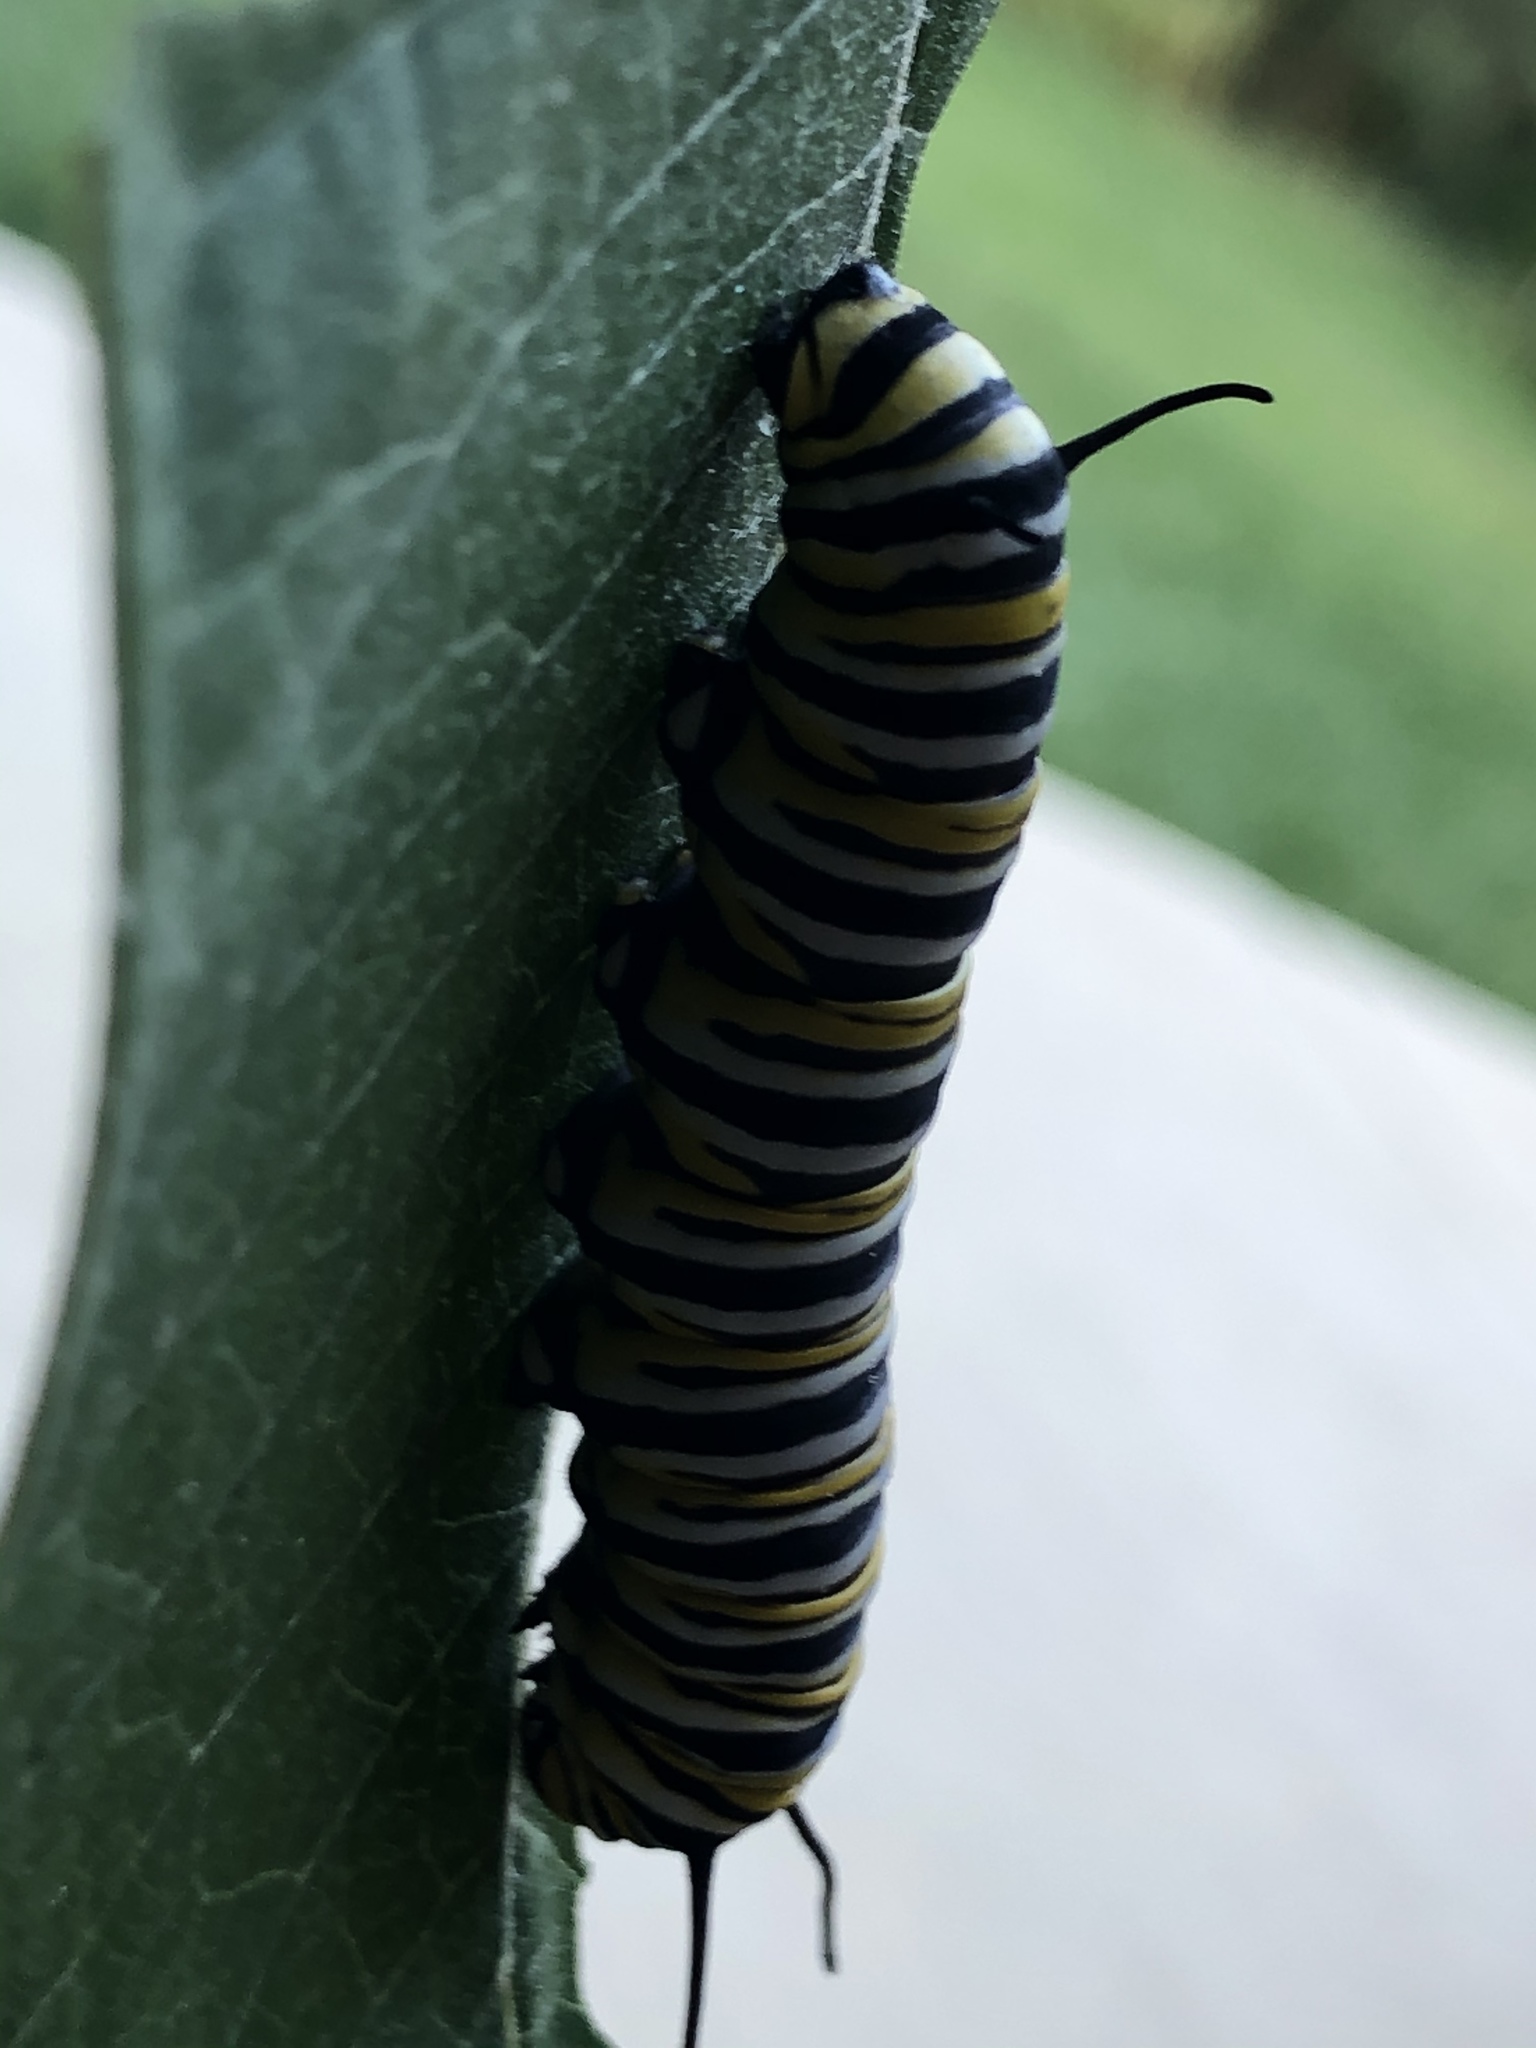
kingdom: Animalia
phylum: Arthropoda
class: Insecta
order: Lepidoptera
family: Nymphalidae
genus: Danaus
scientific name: Danaus plexippus
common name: Monarch
